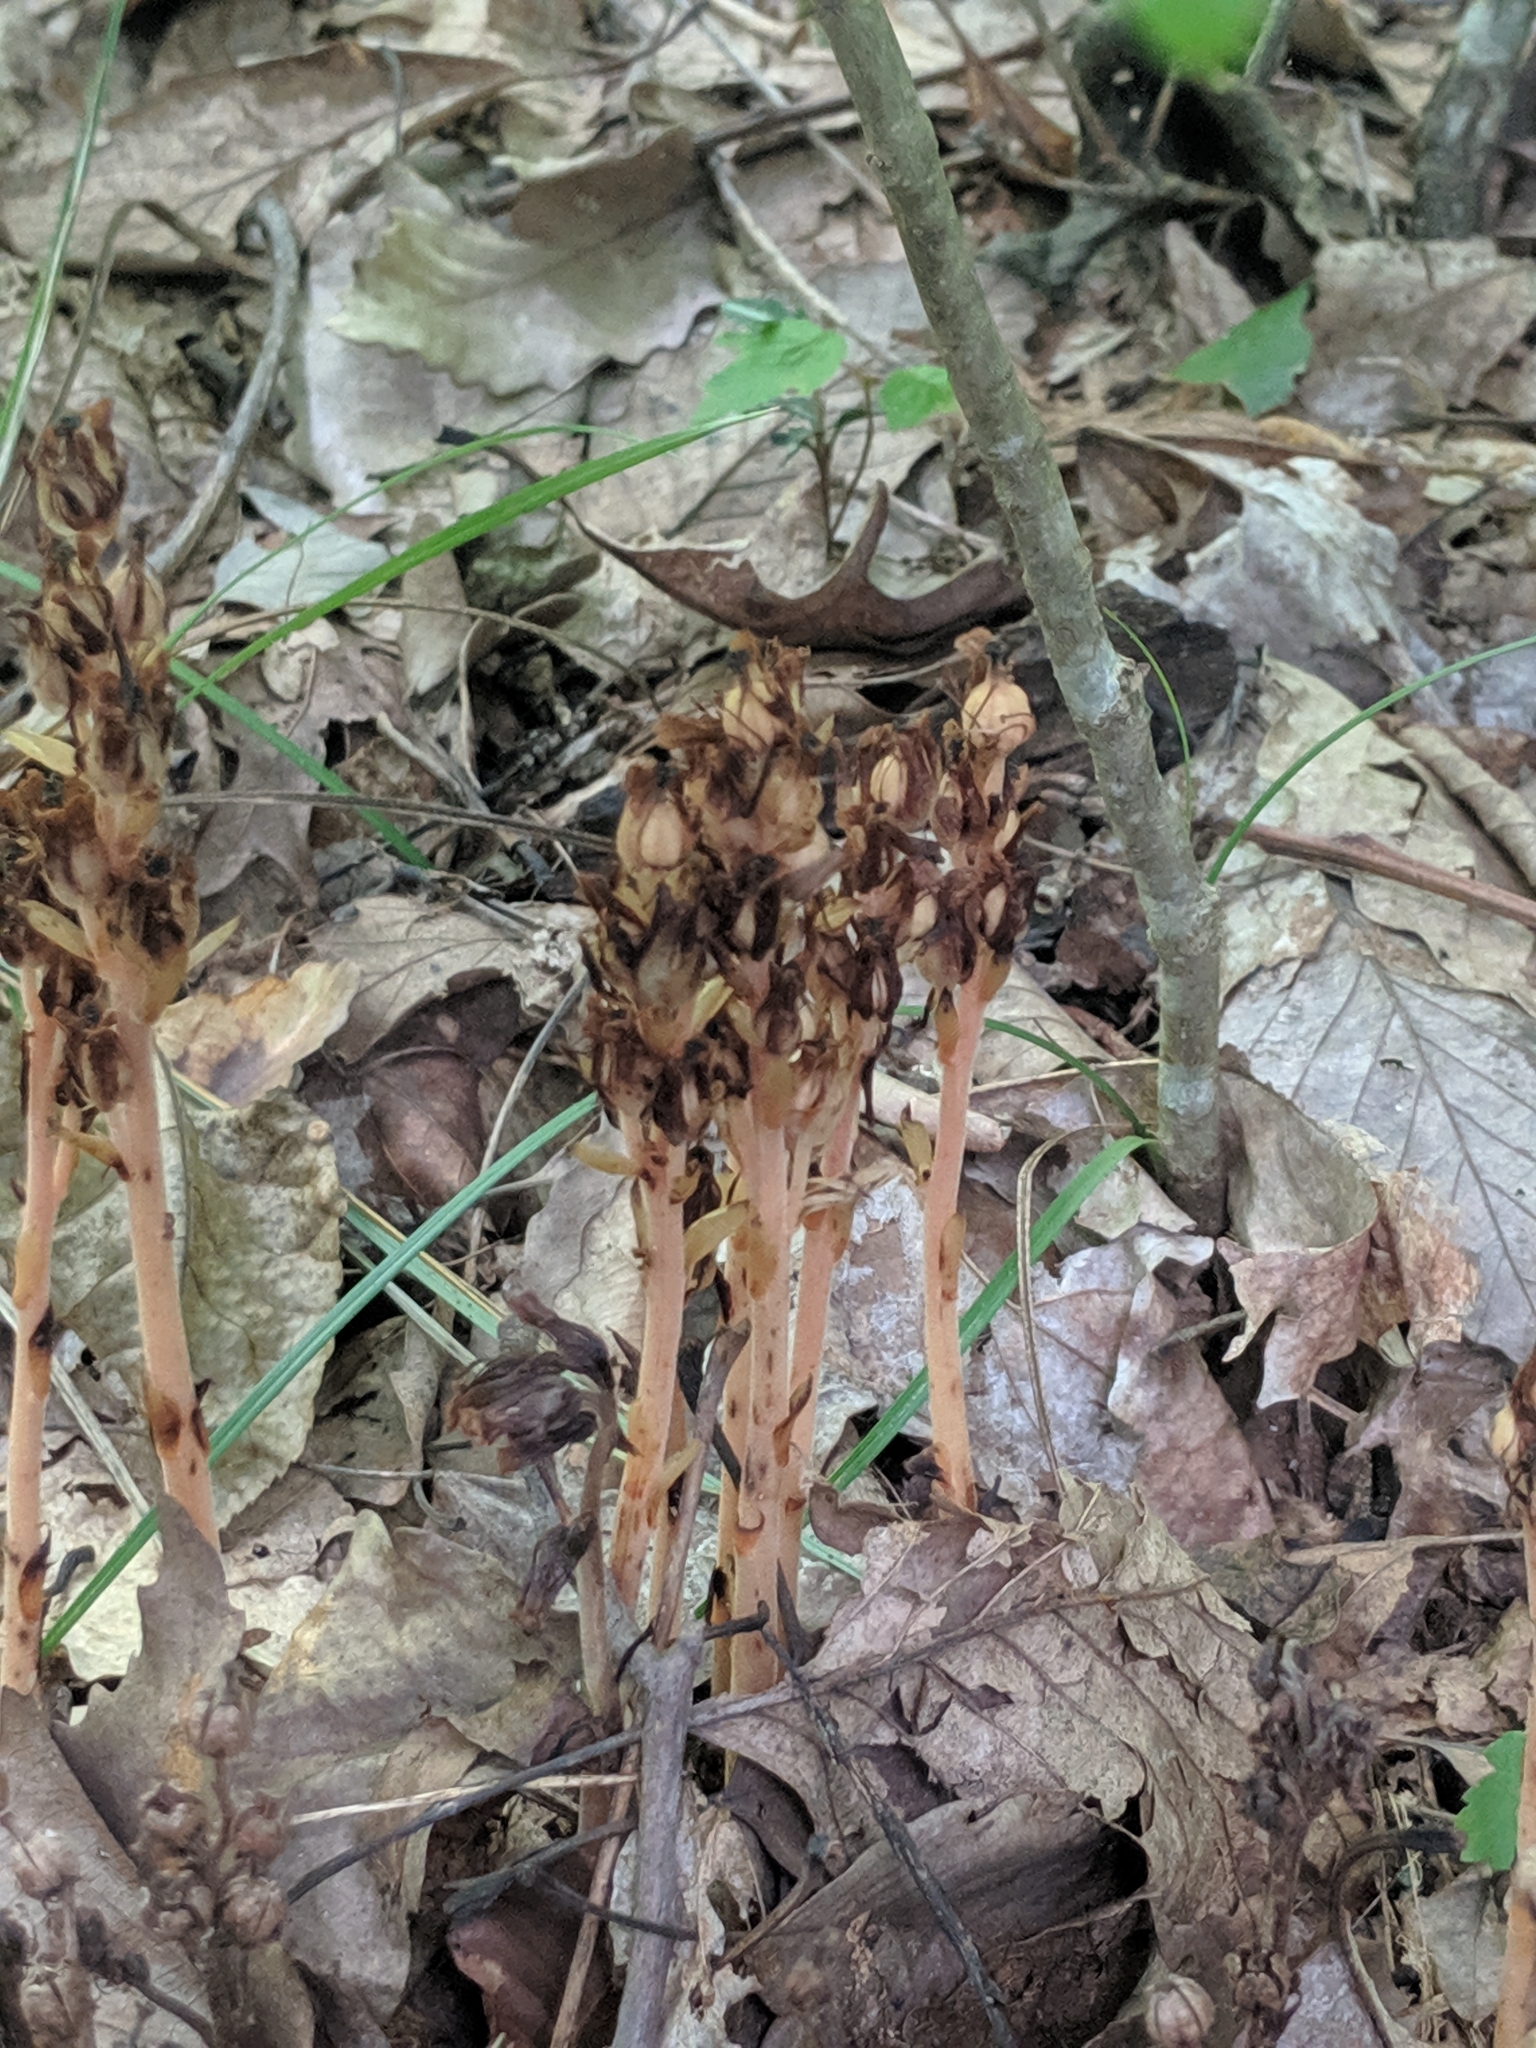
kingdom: Plantae
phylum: Tracheophyta
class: Magnoliopsida
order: Ericales
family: Ericaceae
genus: Hypopitys
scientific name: Hypopitys monotropa
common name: Yellow bird's-nest
